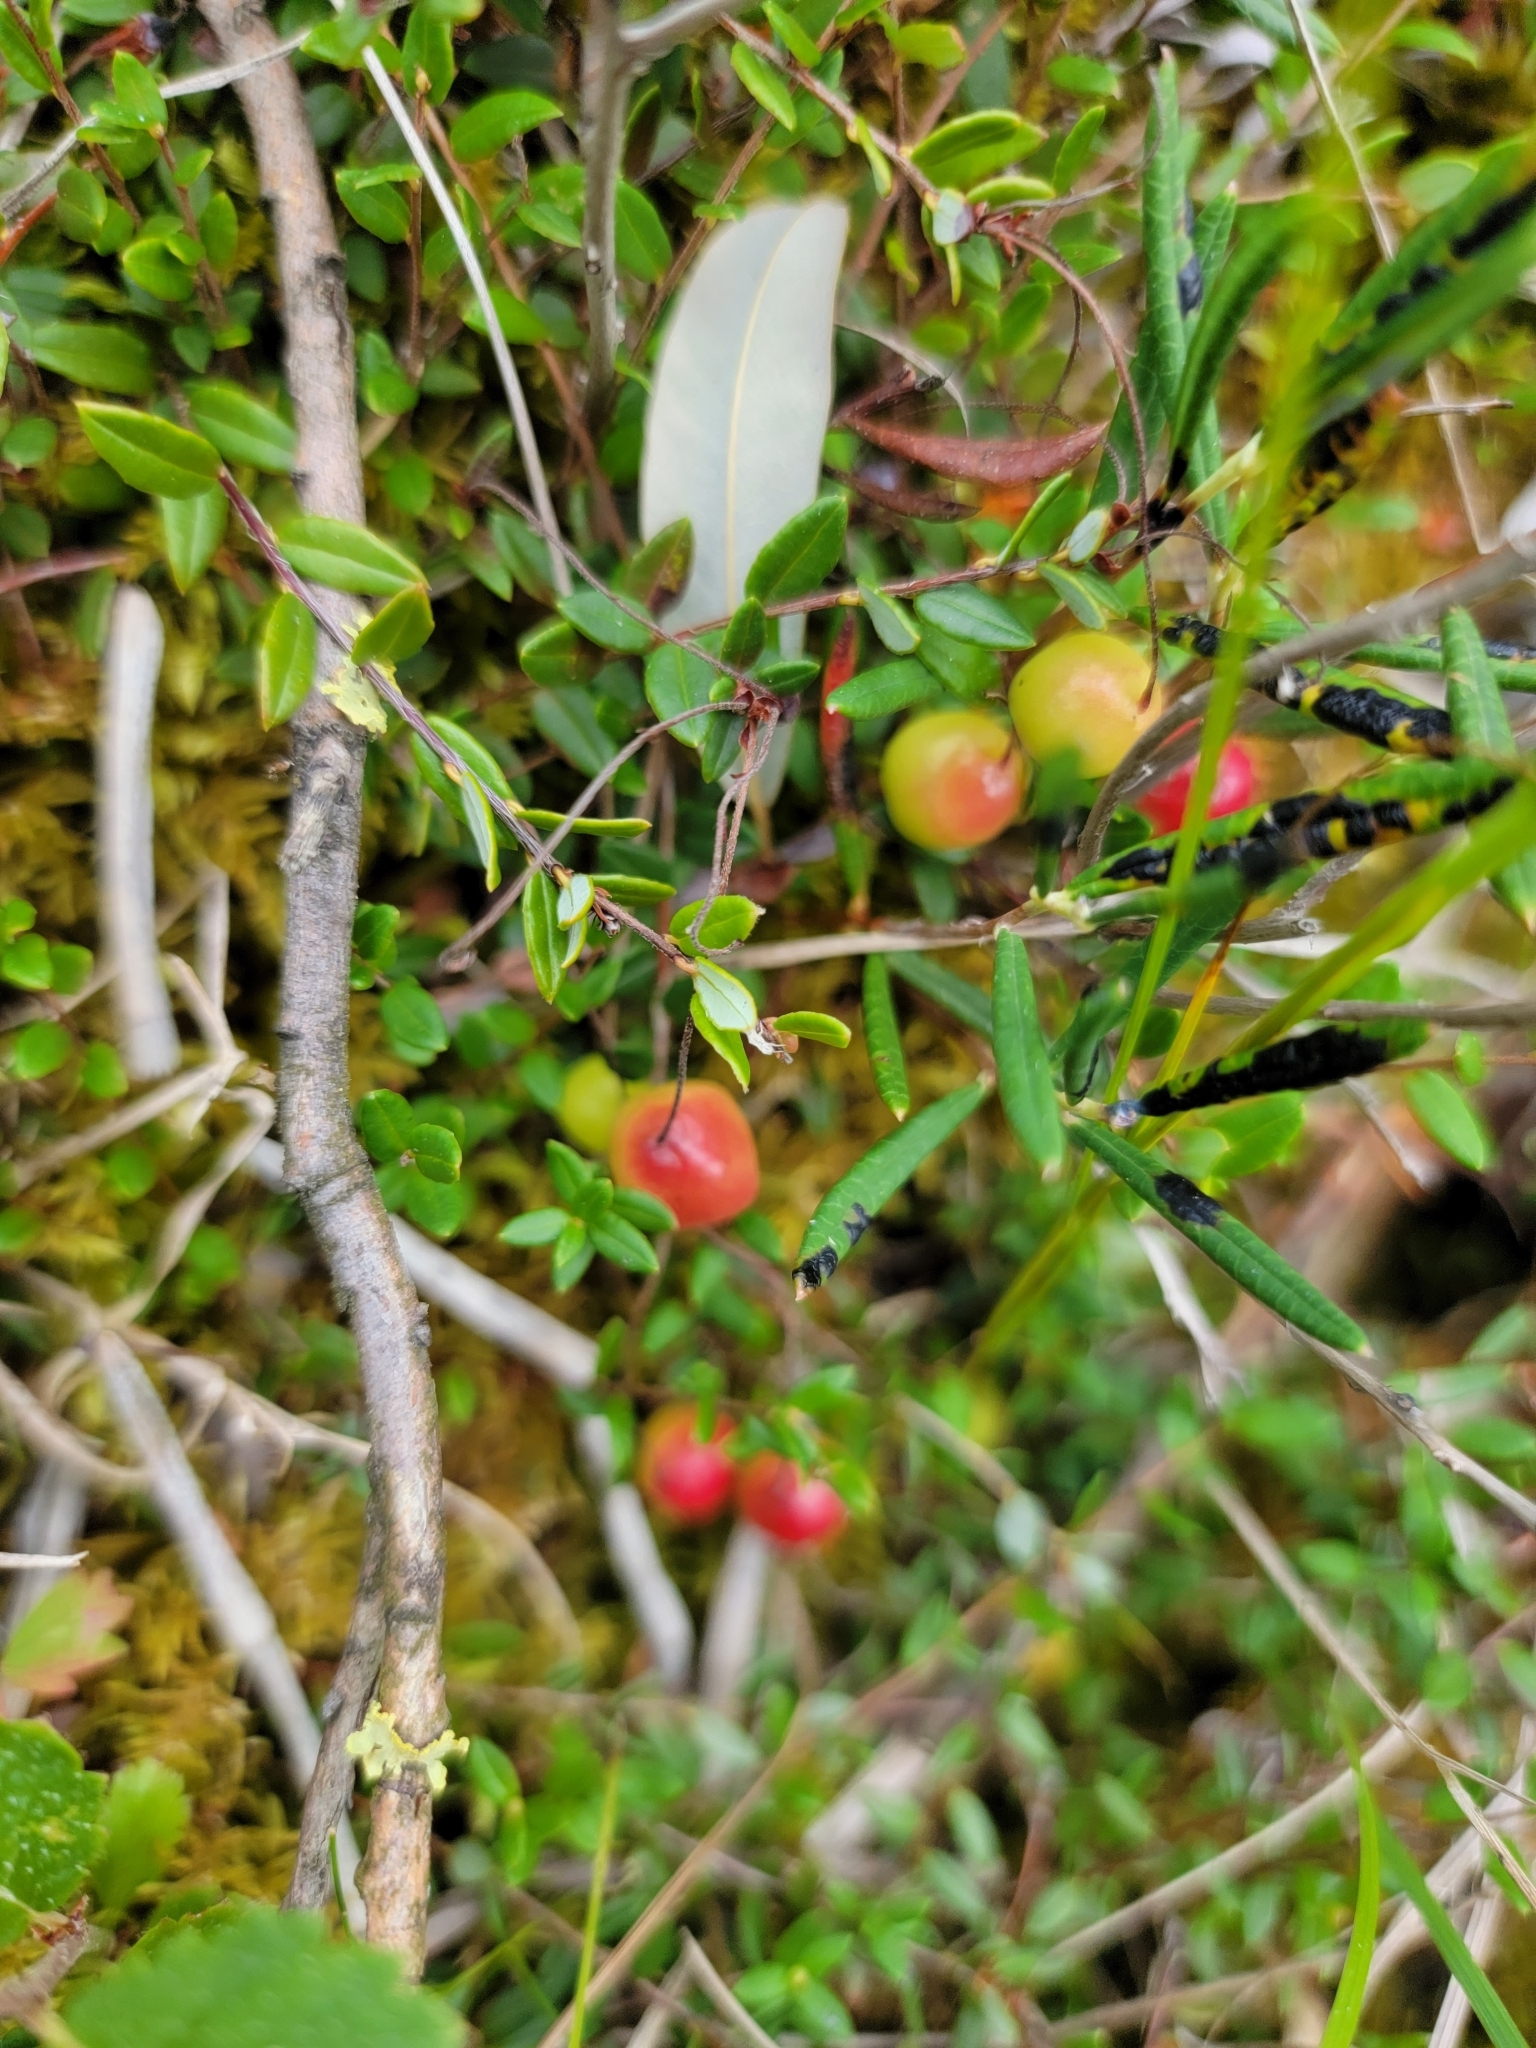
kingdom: Plantae
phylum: Tracheophyta
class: Magnoliopsida
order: Ericales
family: Ericaceae
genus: Vaccinium
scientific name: Vaccinium oxycoccos
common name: Cranberry
